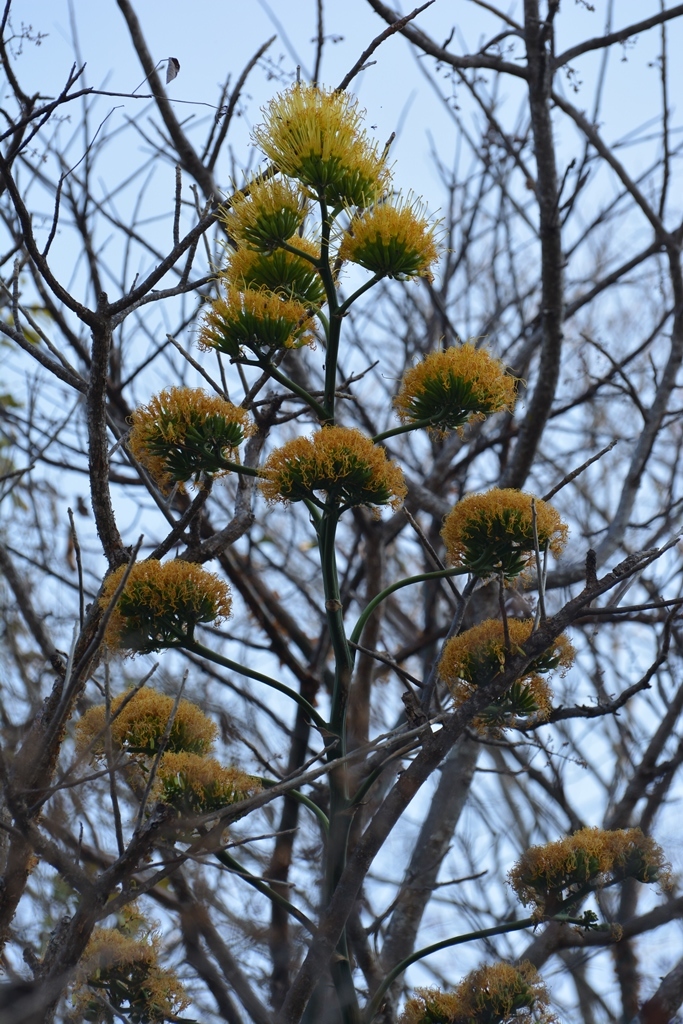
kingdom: Plantae
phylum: Tracheophyta
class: Liliopsida
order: Asparagales
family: Asparagaceae
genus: Agave
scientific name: Agave kewensis
